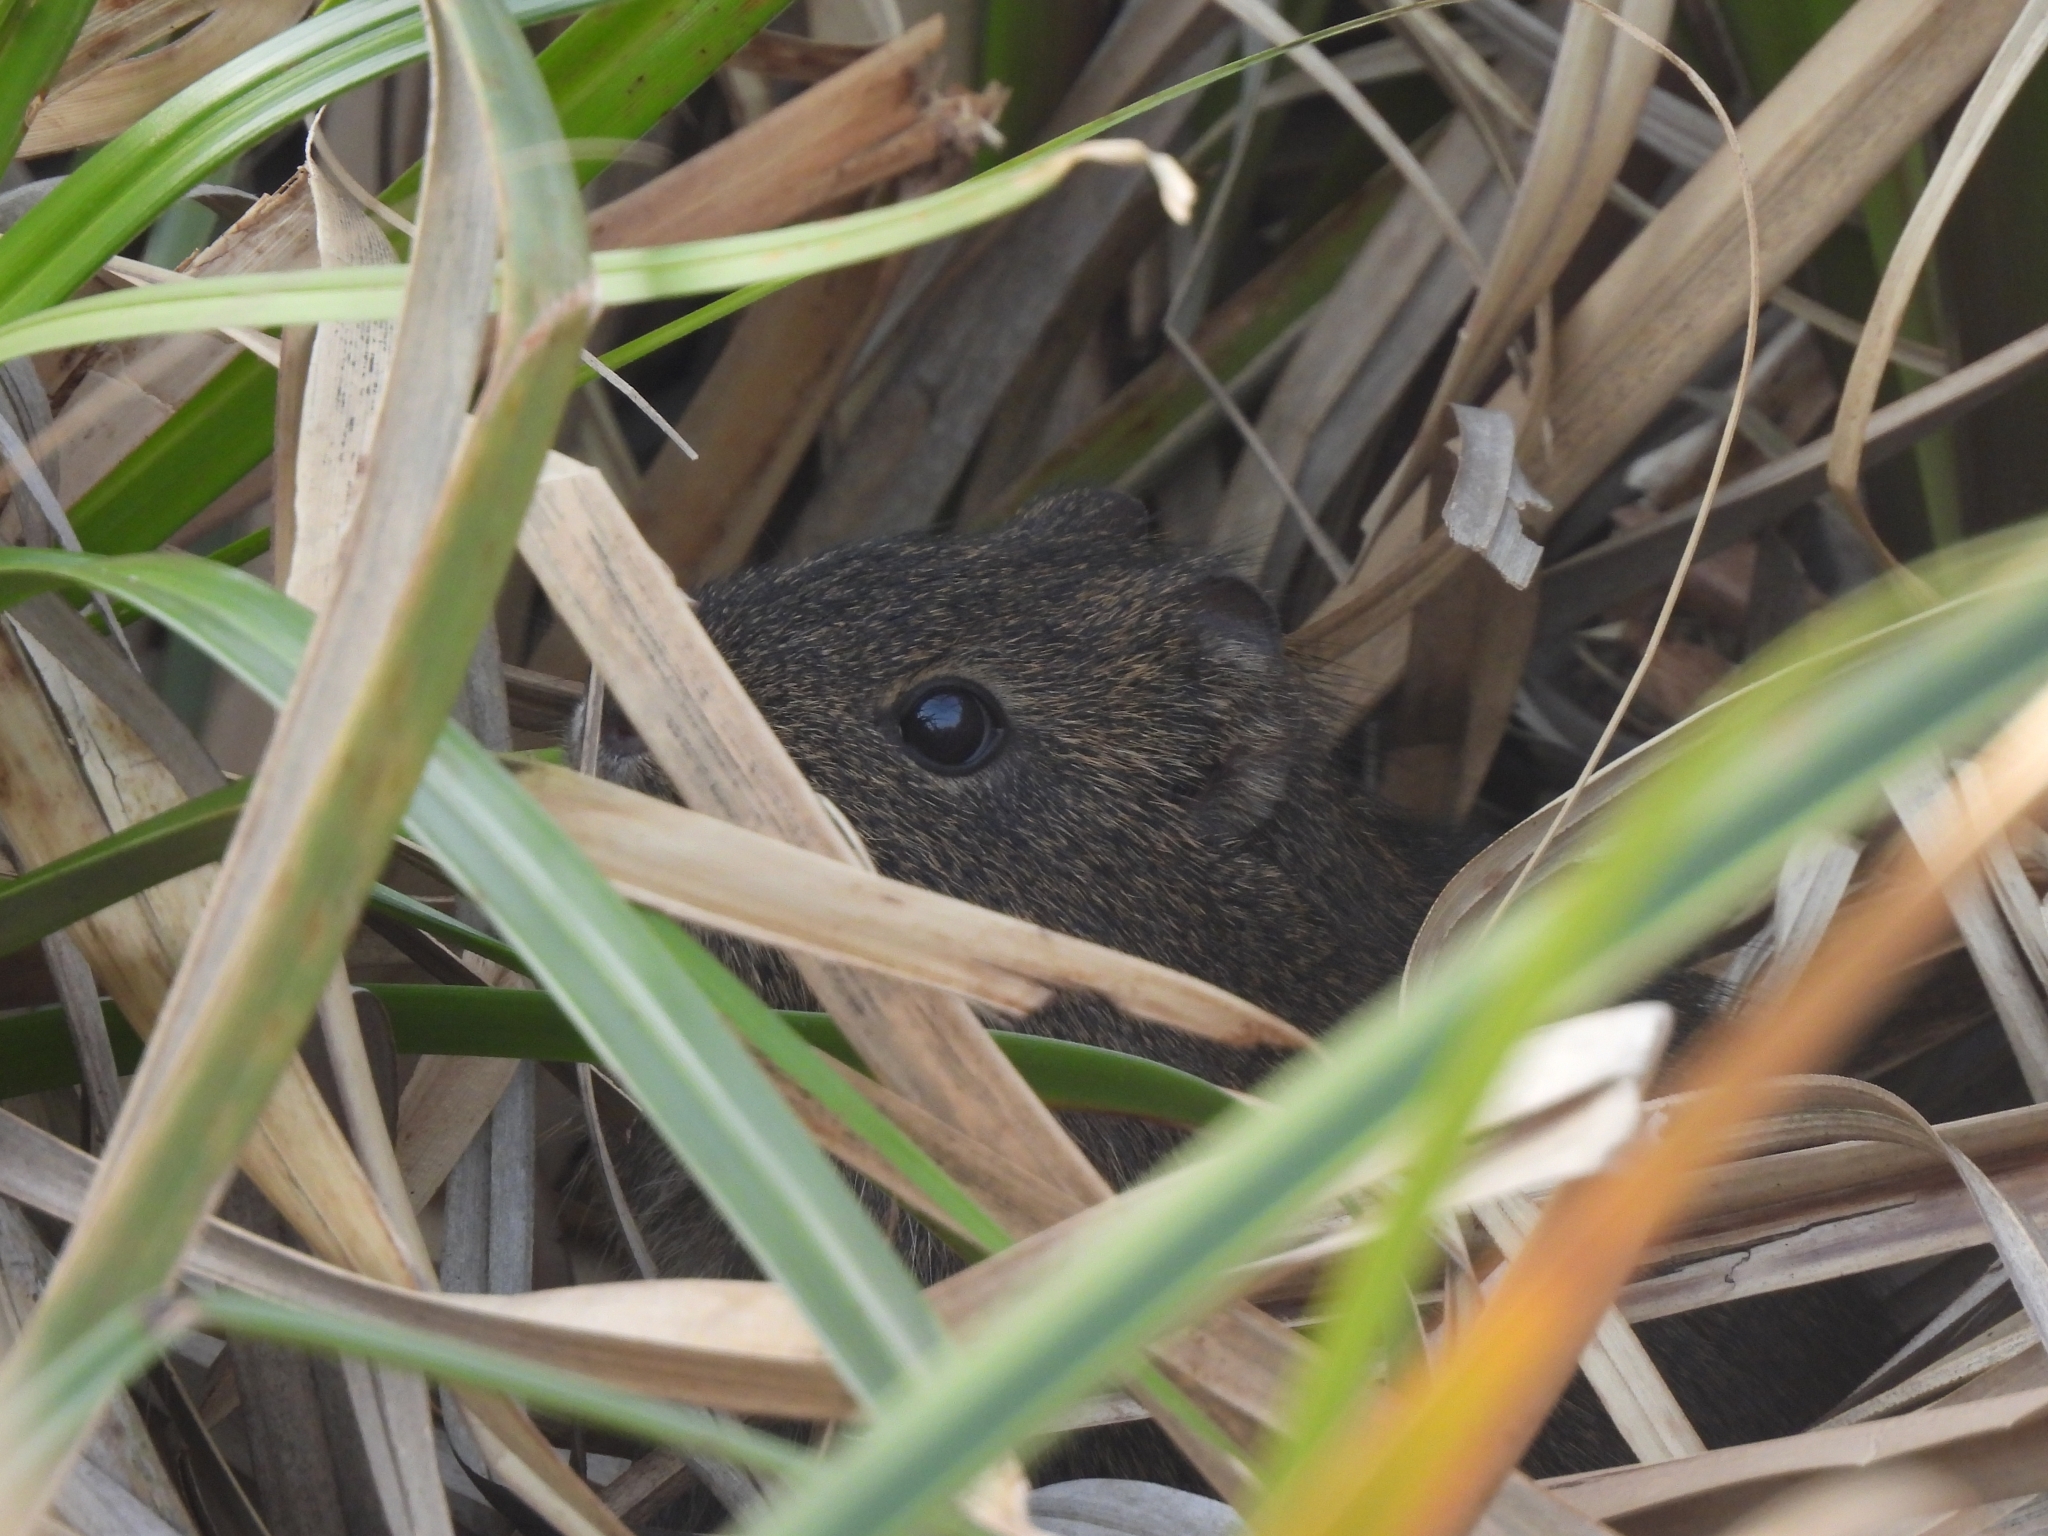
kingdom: Animalia
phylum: Chordata
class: Mammalia
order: Rodentia
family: Caviidae
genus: Cavia
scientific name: Cavia aperea
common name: Brazilian guinea pig
